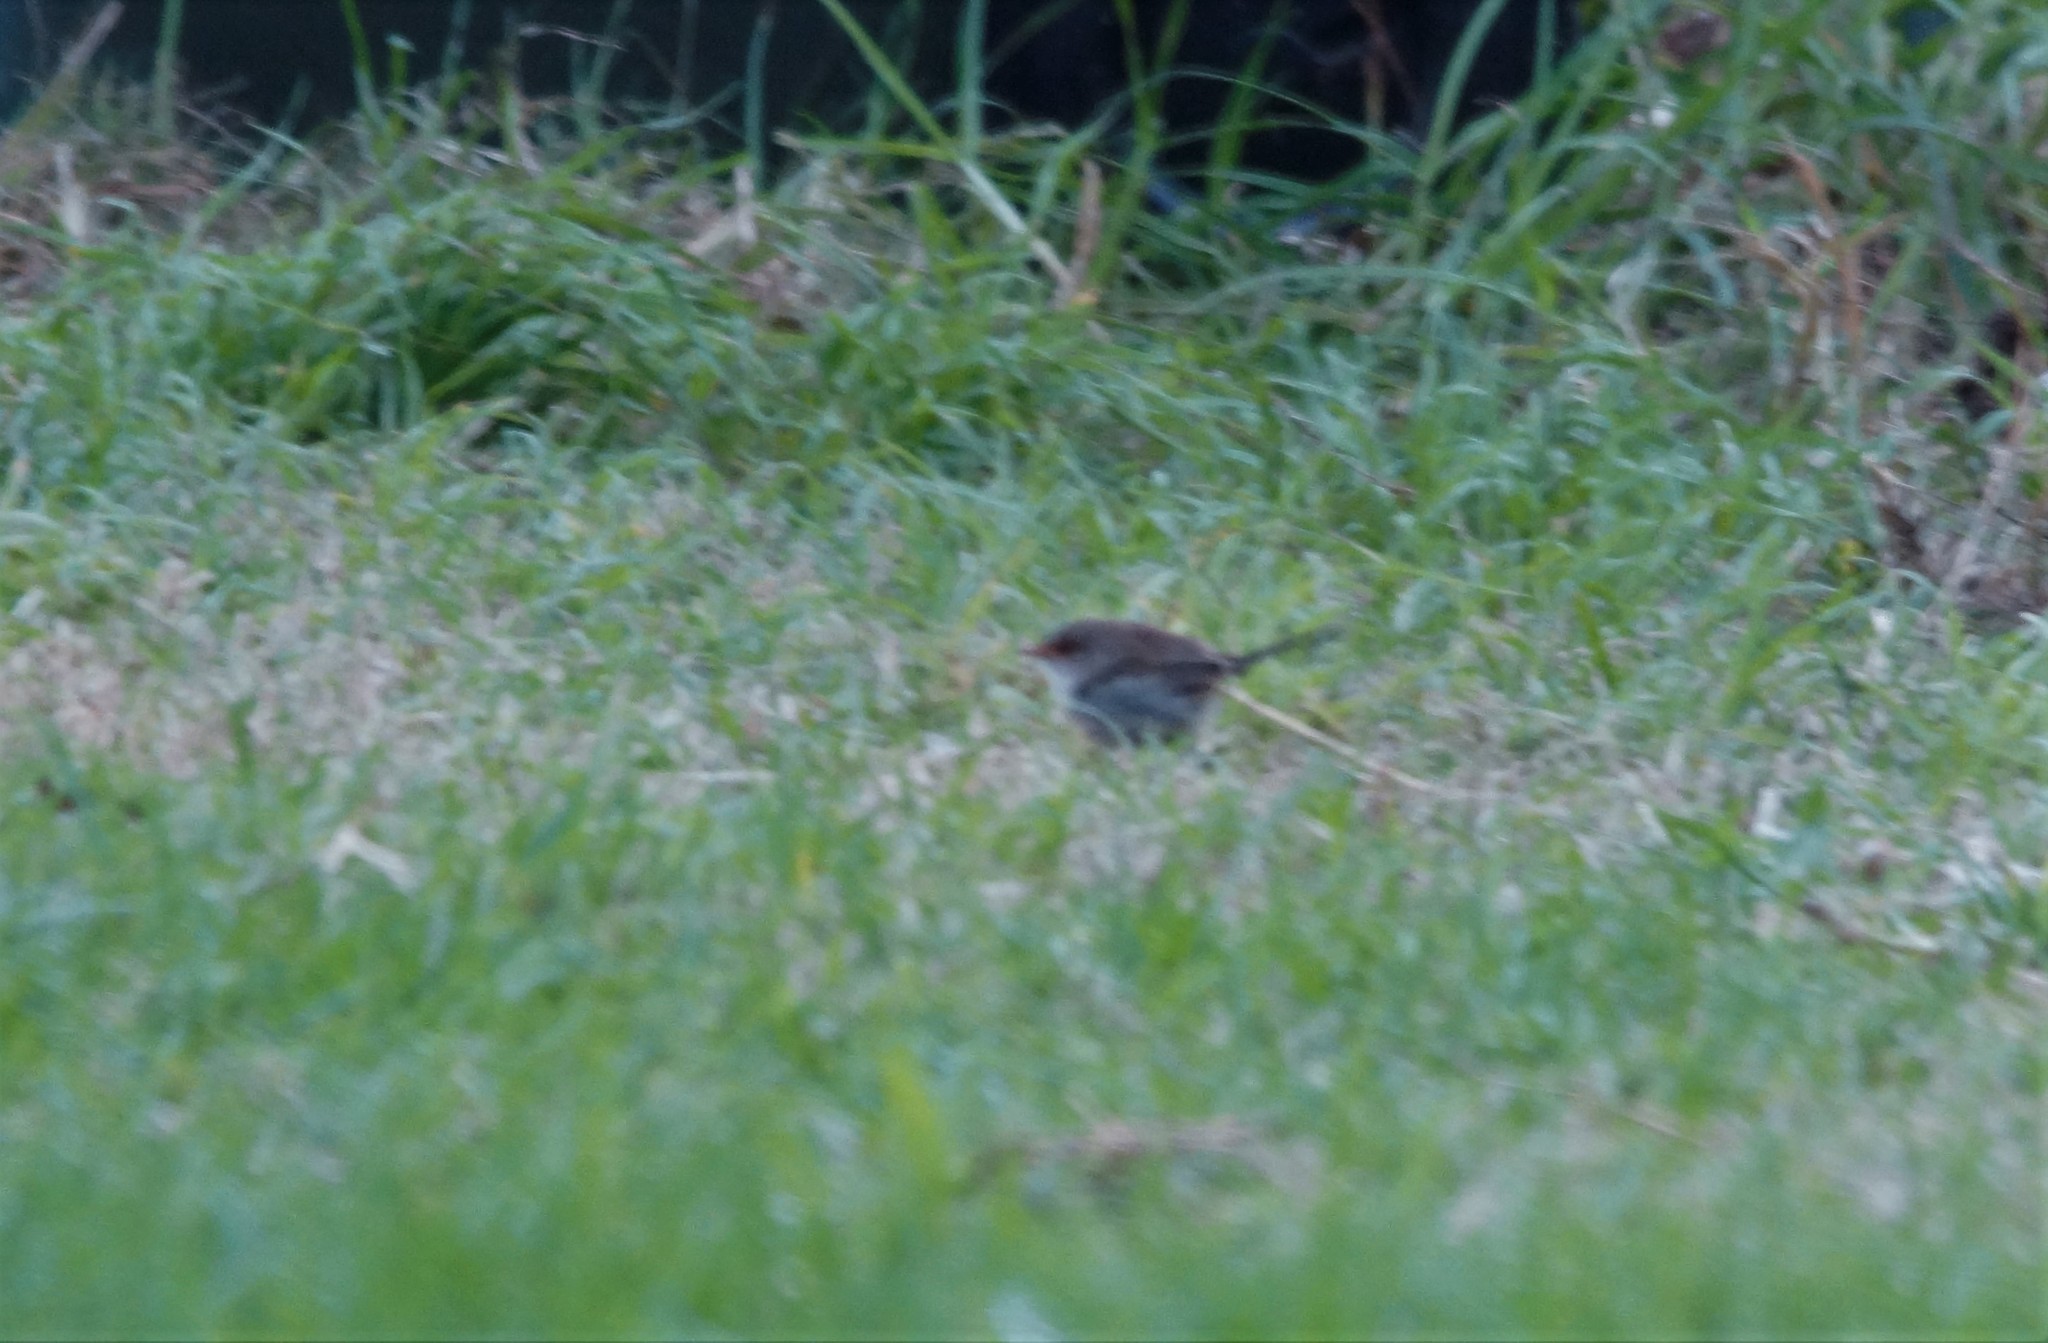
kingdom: Animalia
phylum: Chordata
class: Aves
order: Passeriformes
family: Maluridae
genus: Malurus
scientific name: Malurus cyaneus
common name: Superb fairywren
